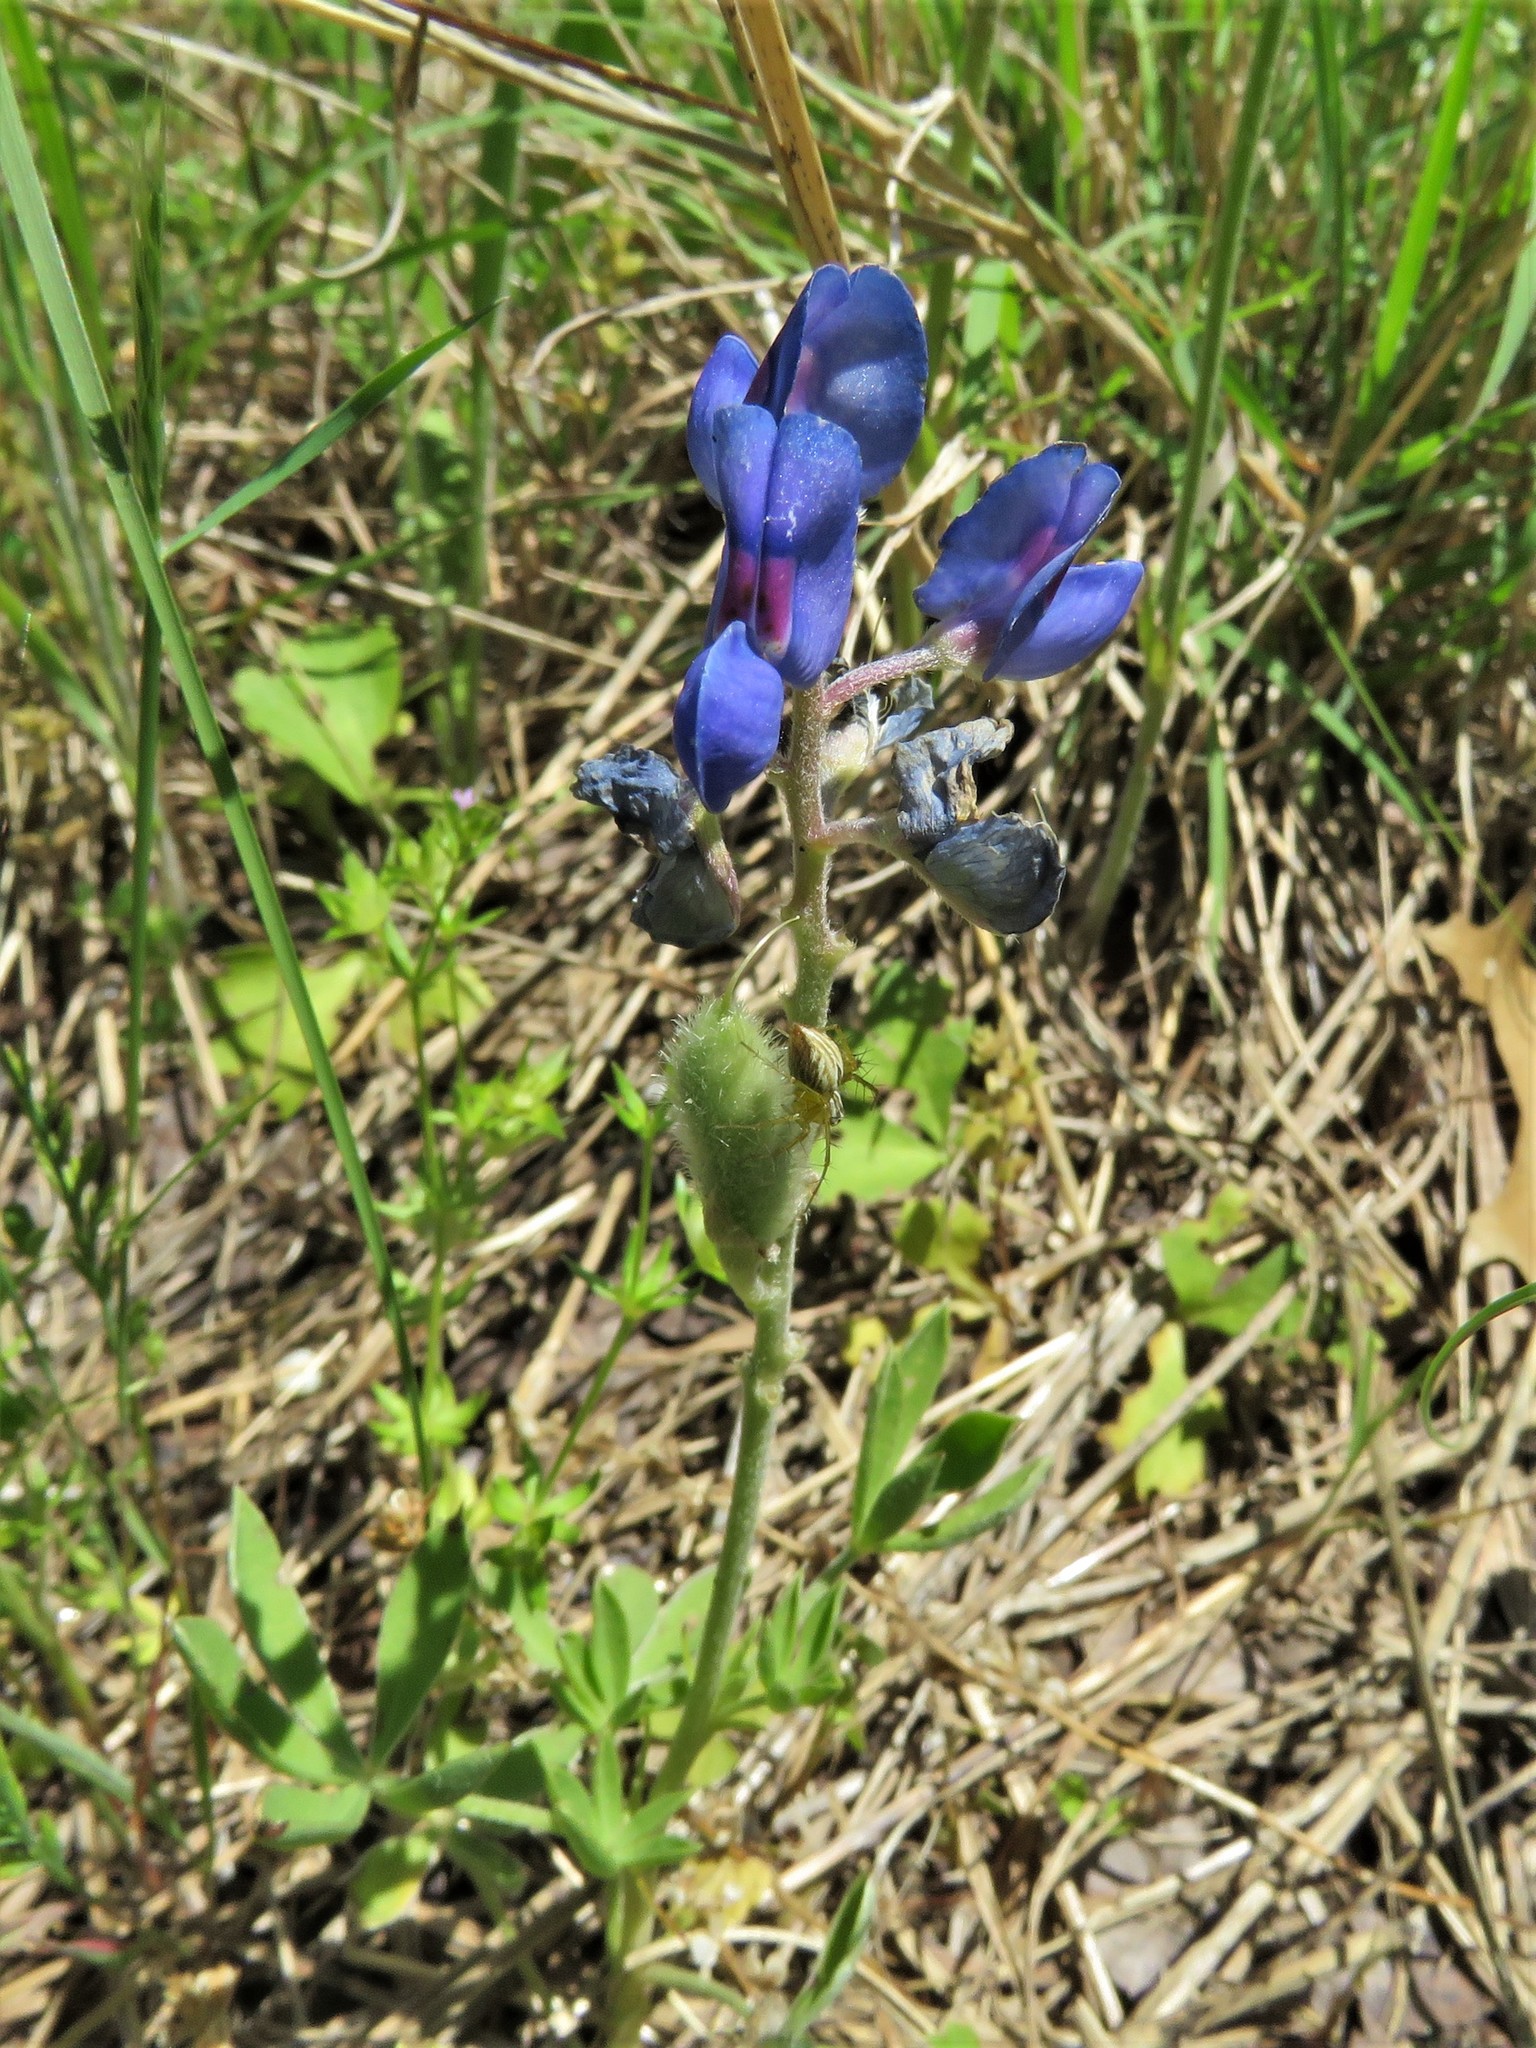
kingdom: Plantae
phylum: Tracheophyta
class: Magnoliopsida
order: Fabales
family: Fabaceae
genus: Lupinus
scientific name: Lupinus texensis
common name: Texas bluebonnet
